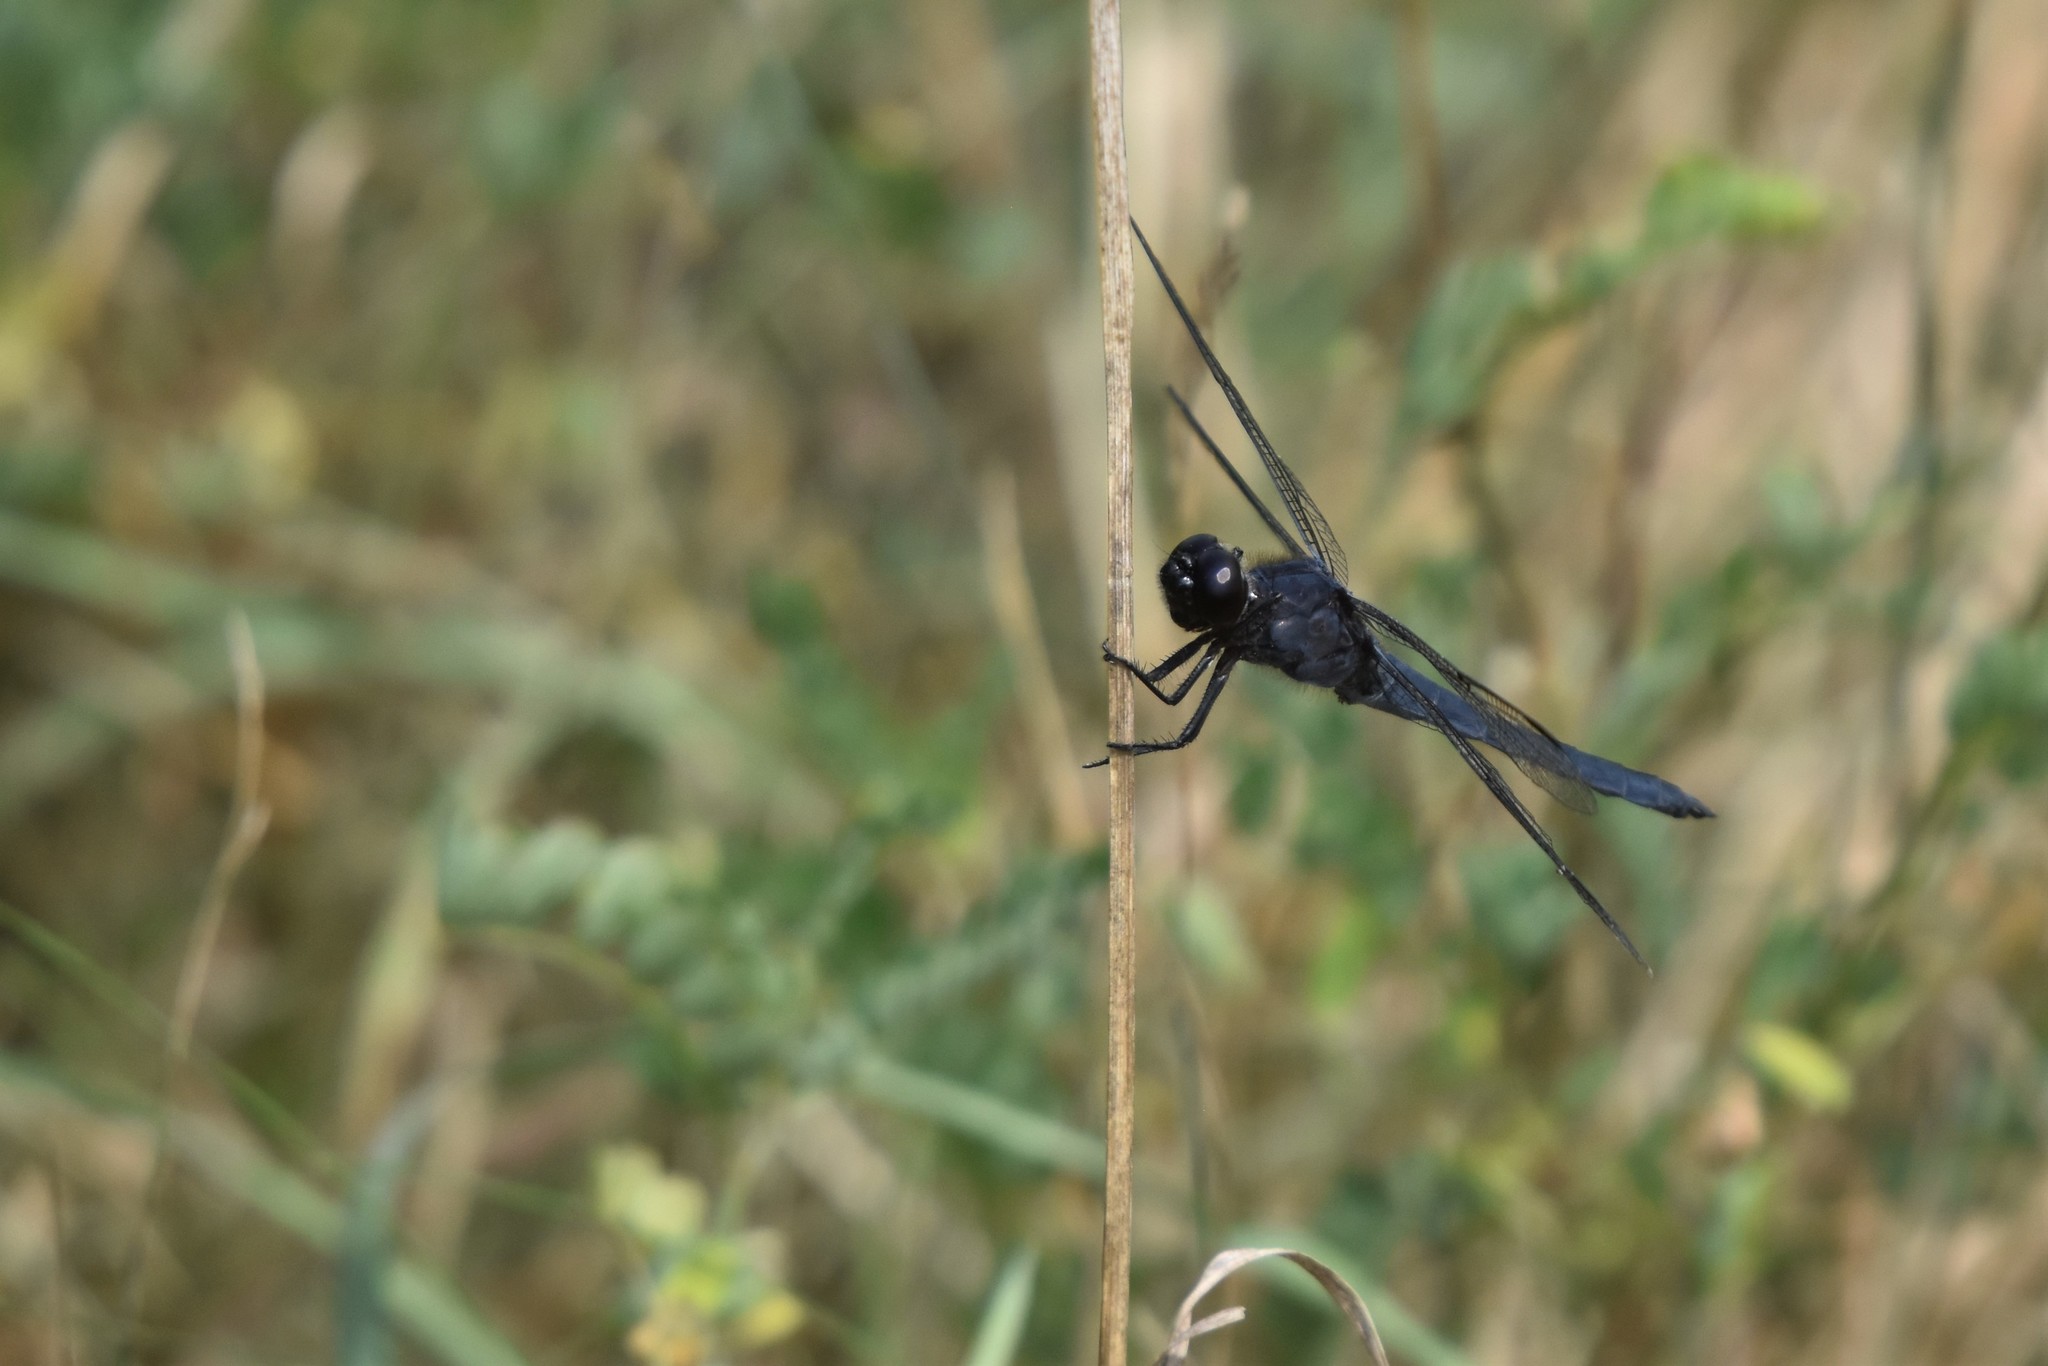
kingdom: Animalia
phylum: Arthropoda
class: Insecta
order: Odonata
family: Libellulidae
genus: Libellula
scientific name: Libellula incesta
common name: Slaty skimmer
